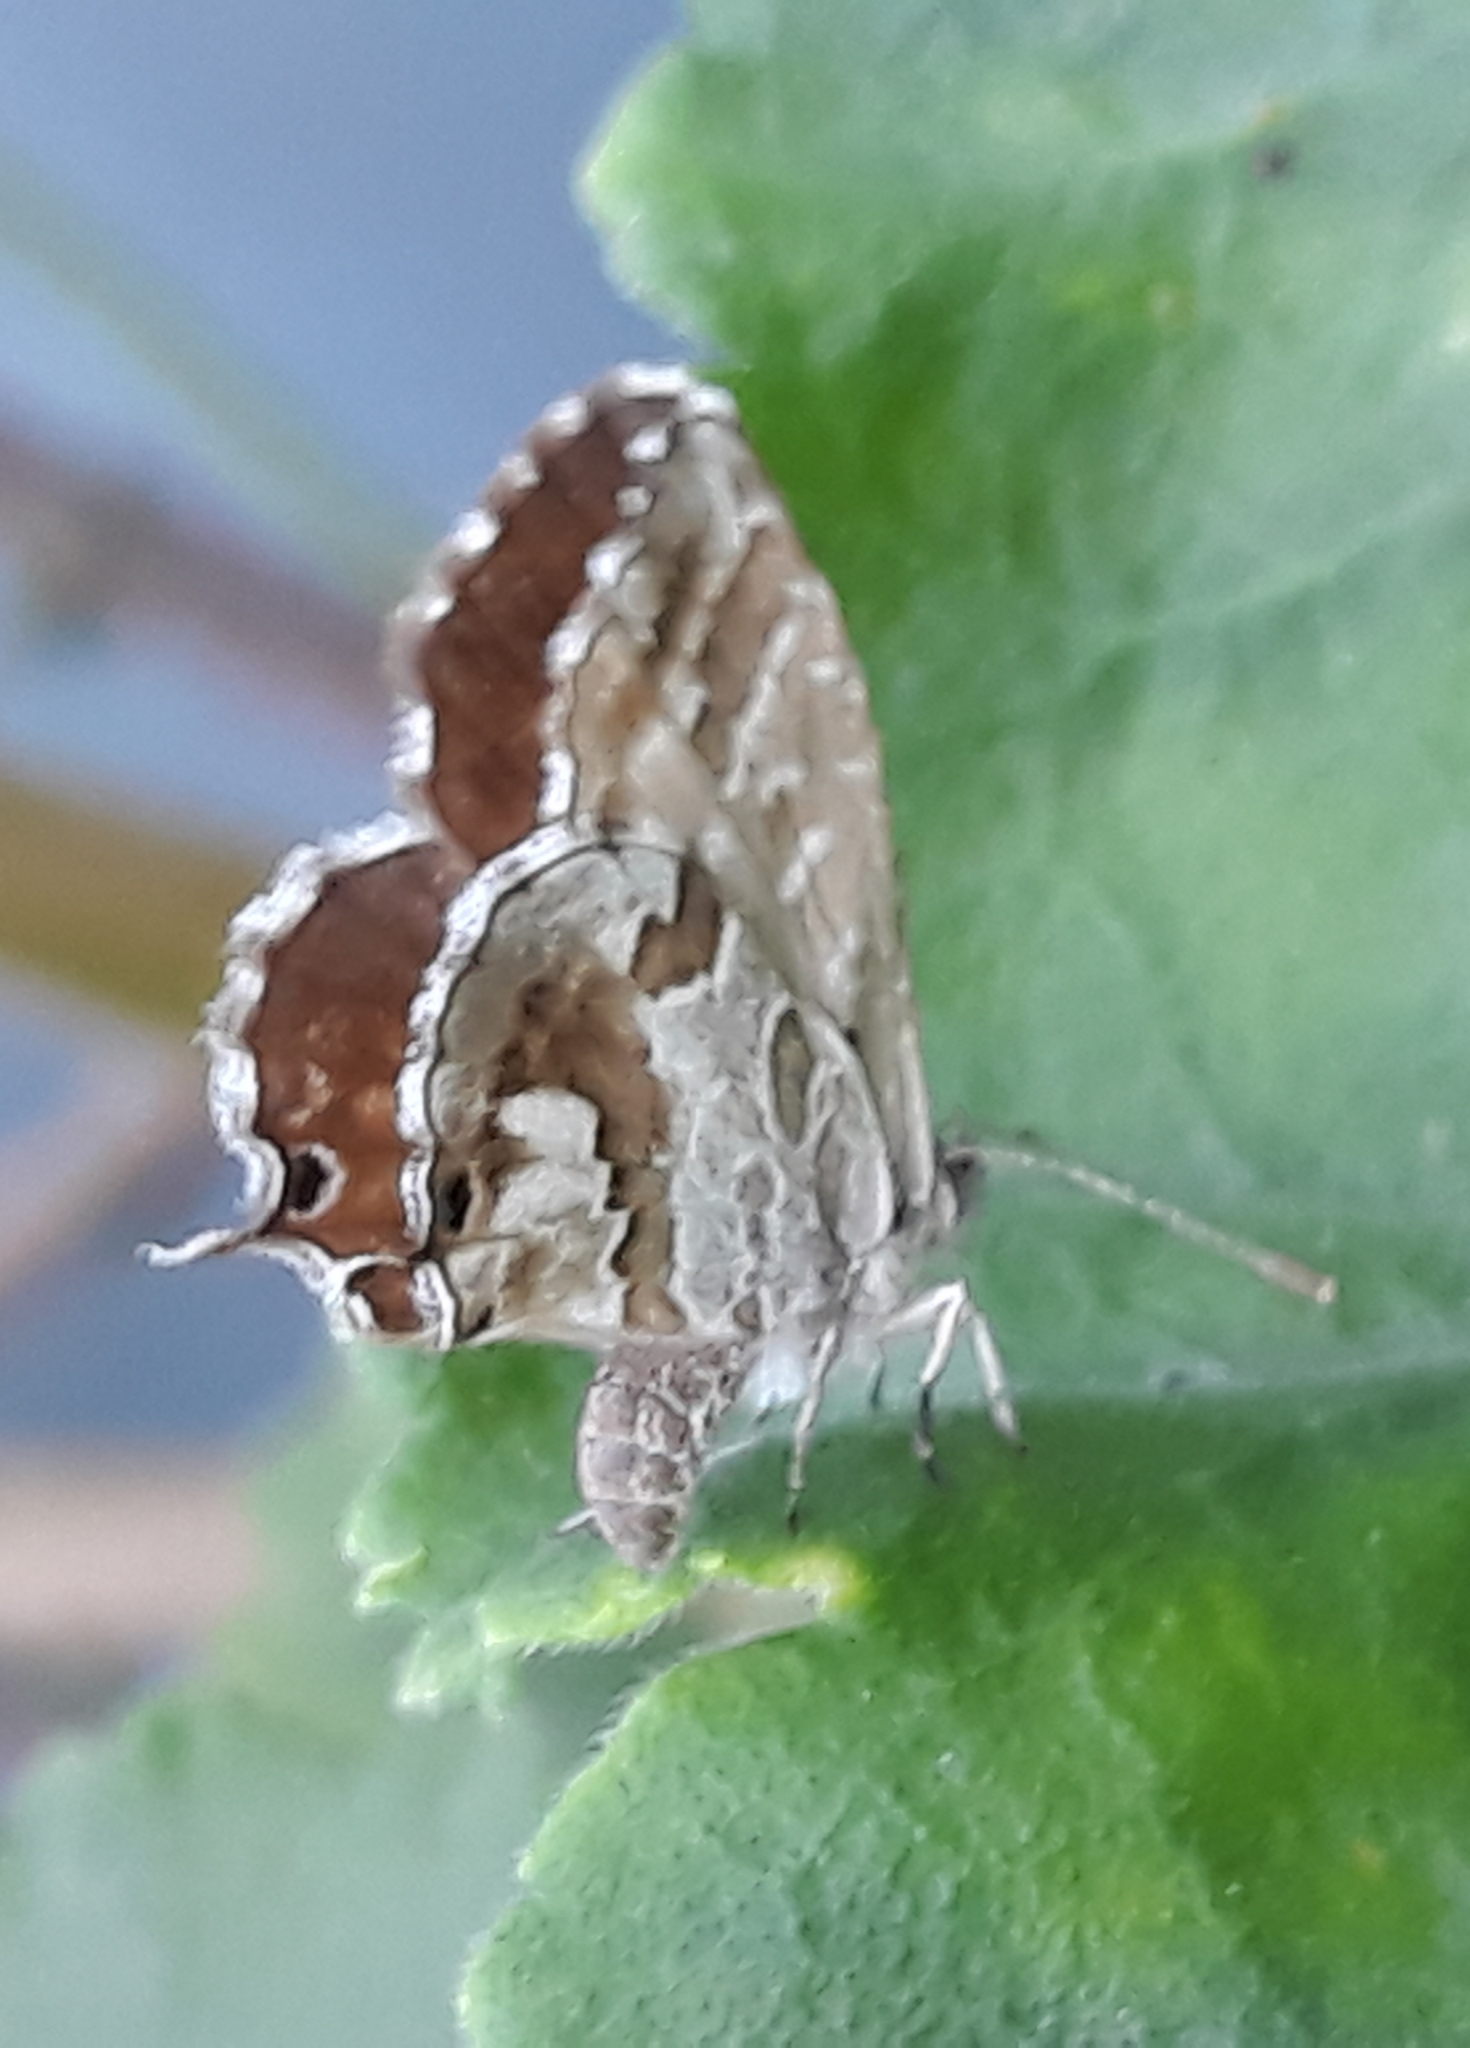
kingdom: Animalia
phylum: Arthropoda
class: Insecta
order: Lepidoptera
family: Lycaenidae
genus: Cacyreus
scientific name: Cacyreus marshalli
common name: Geranium bronze
